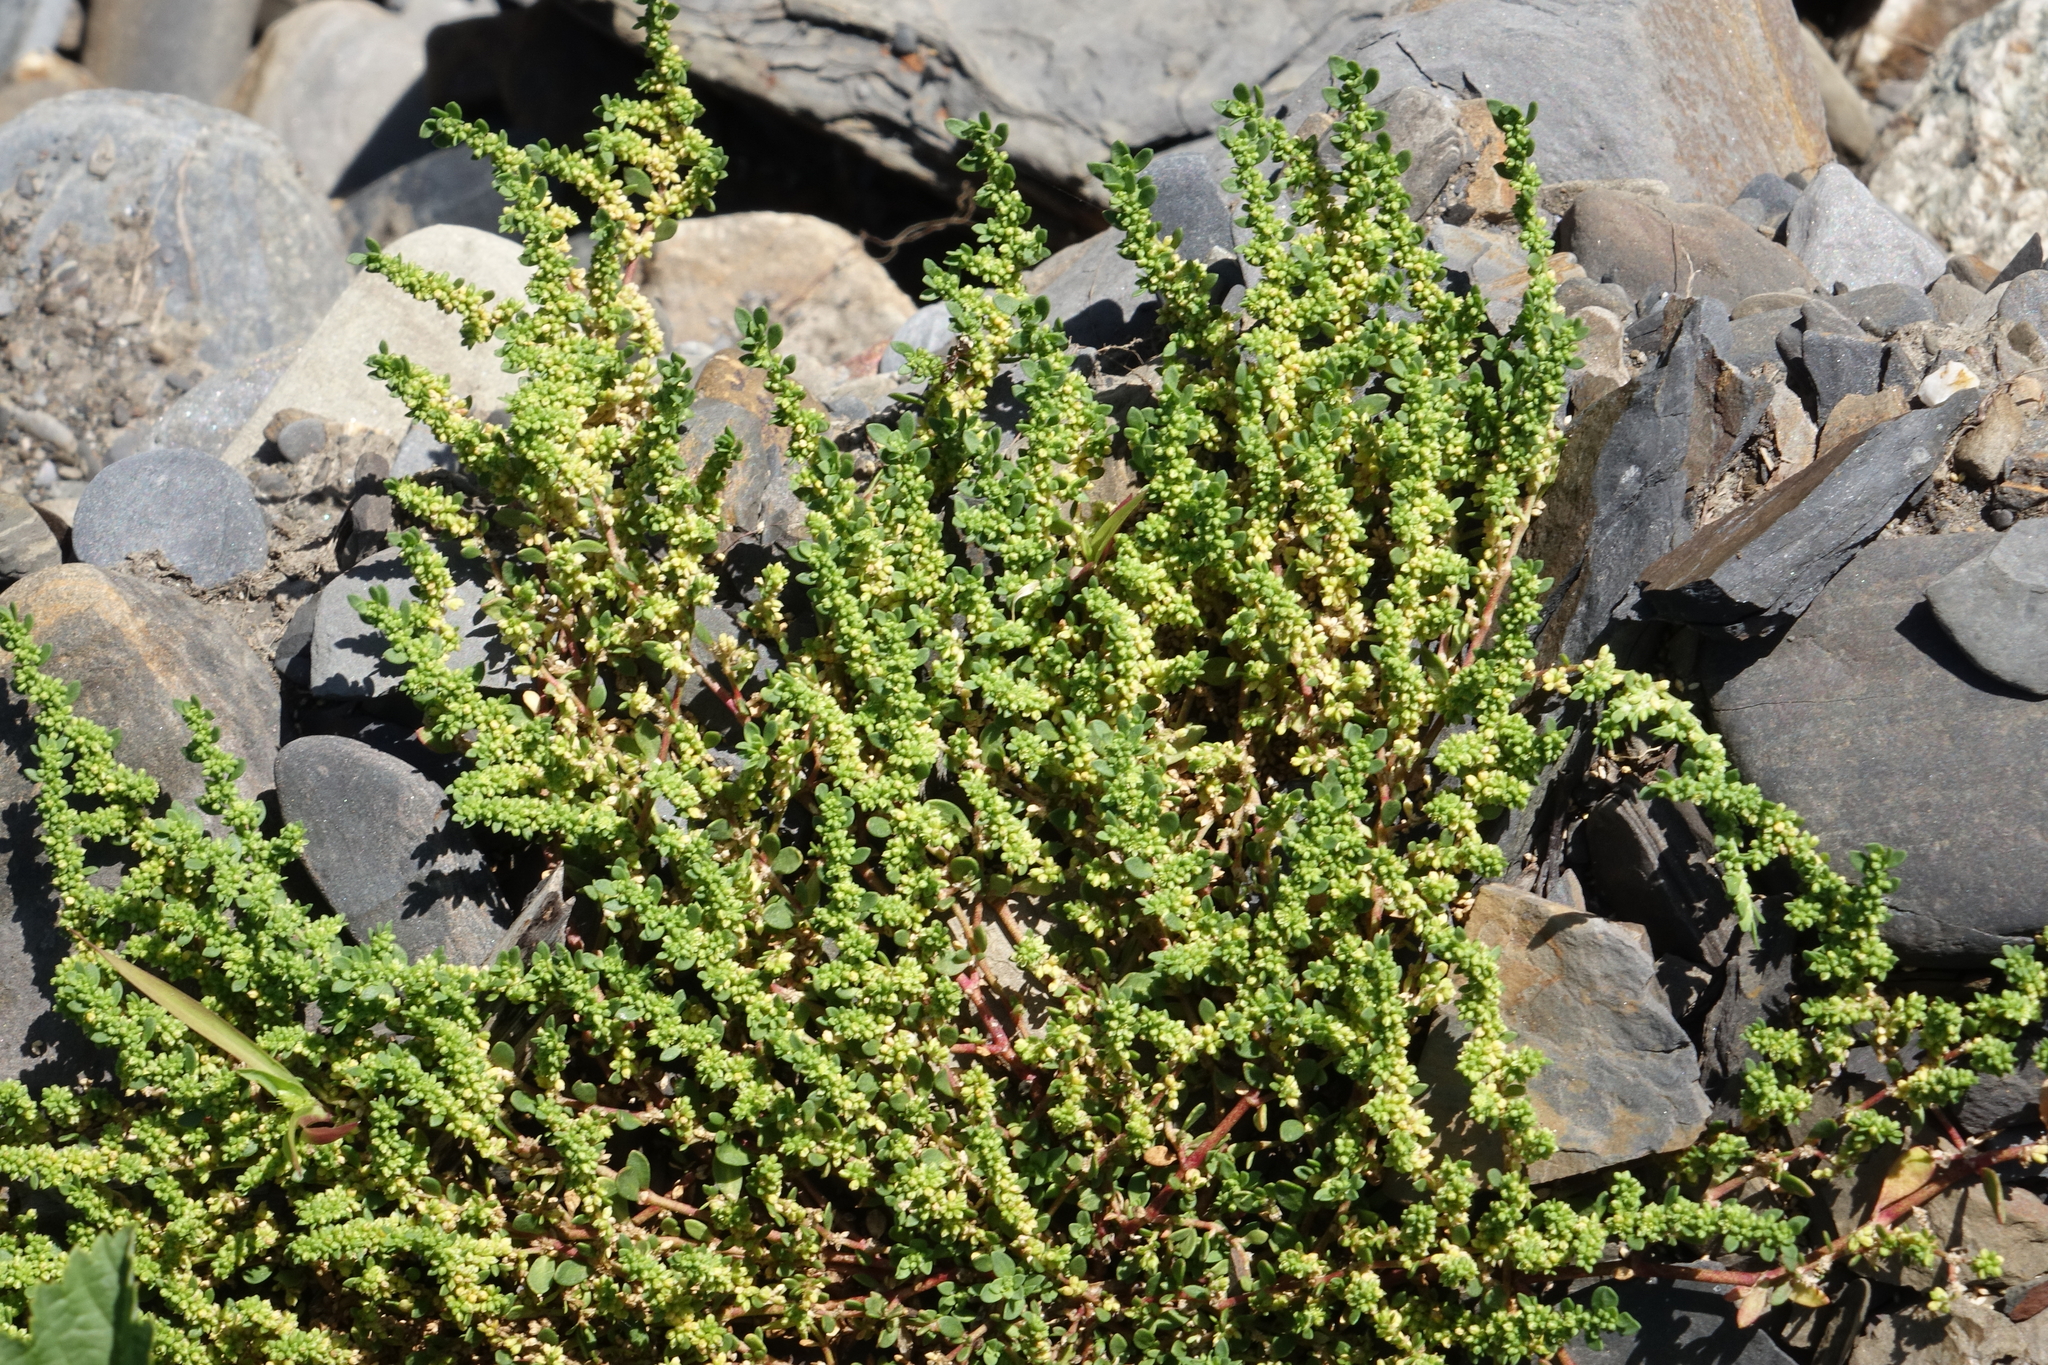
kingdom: Plantae
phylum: Tracheophyta
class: Magnoliopsida
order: Caryophyllales
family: Caryophyllaceae
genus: Herniaria
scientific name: Herniaria glabra
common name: Smooth rupturewort
